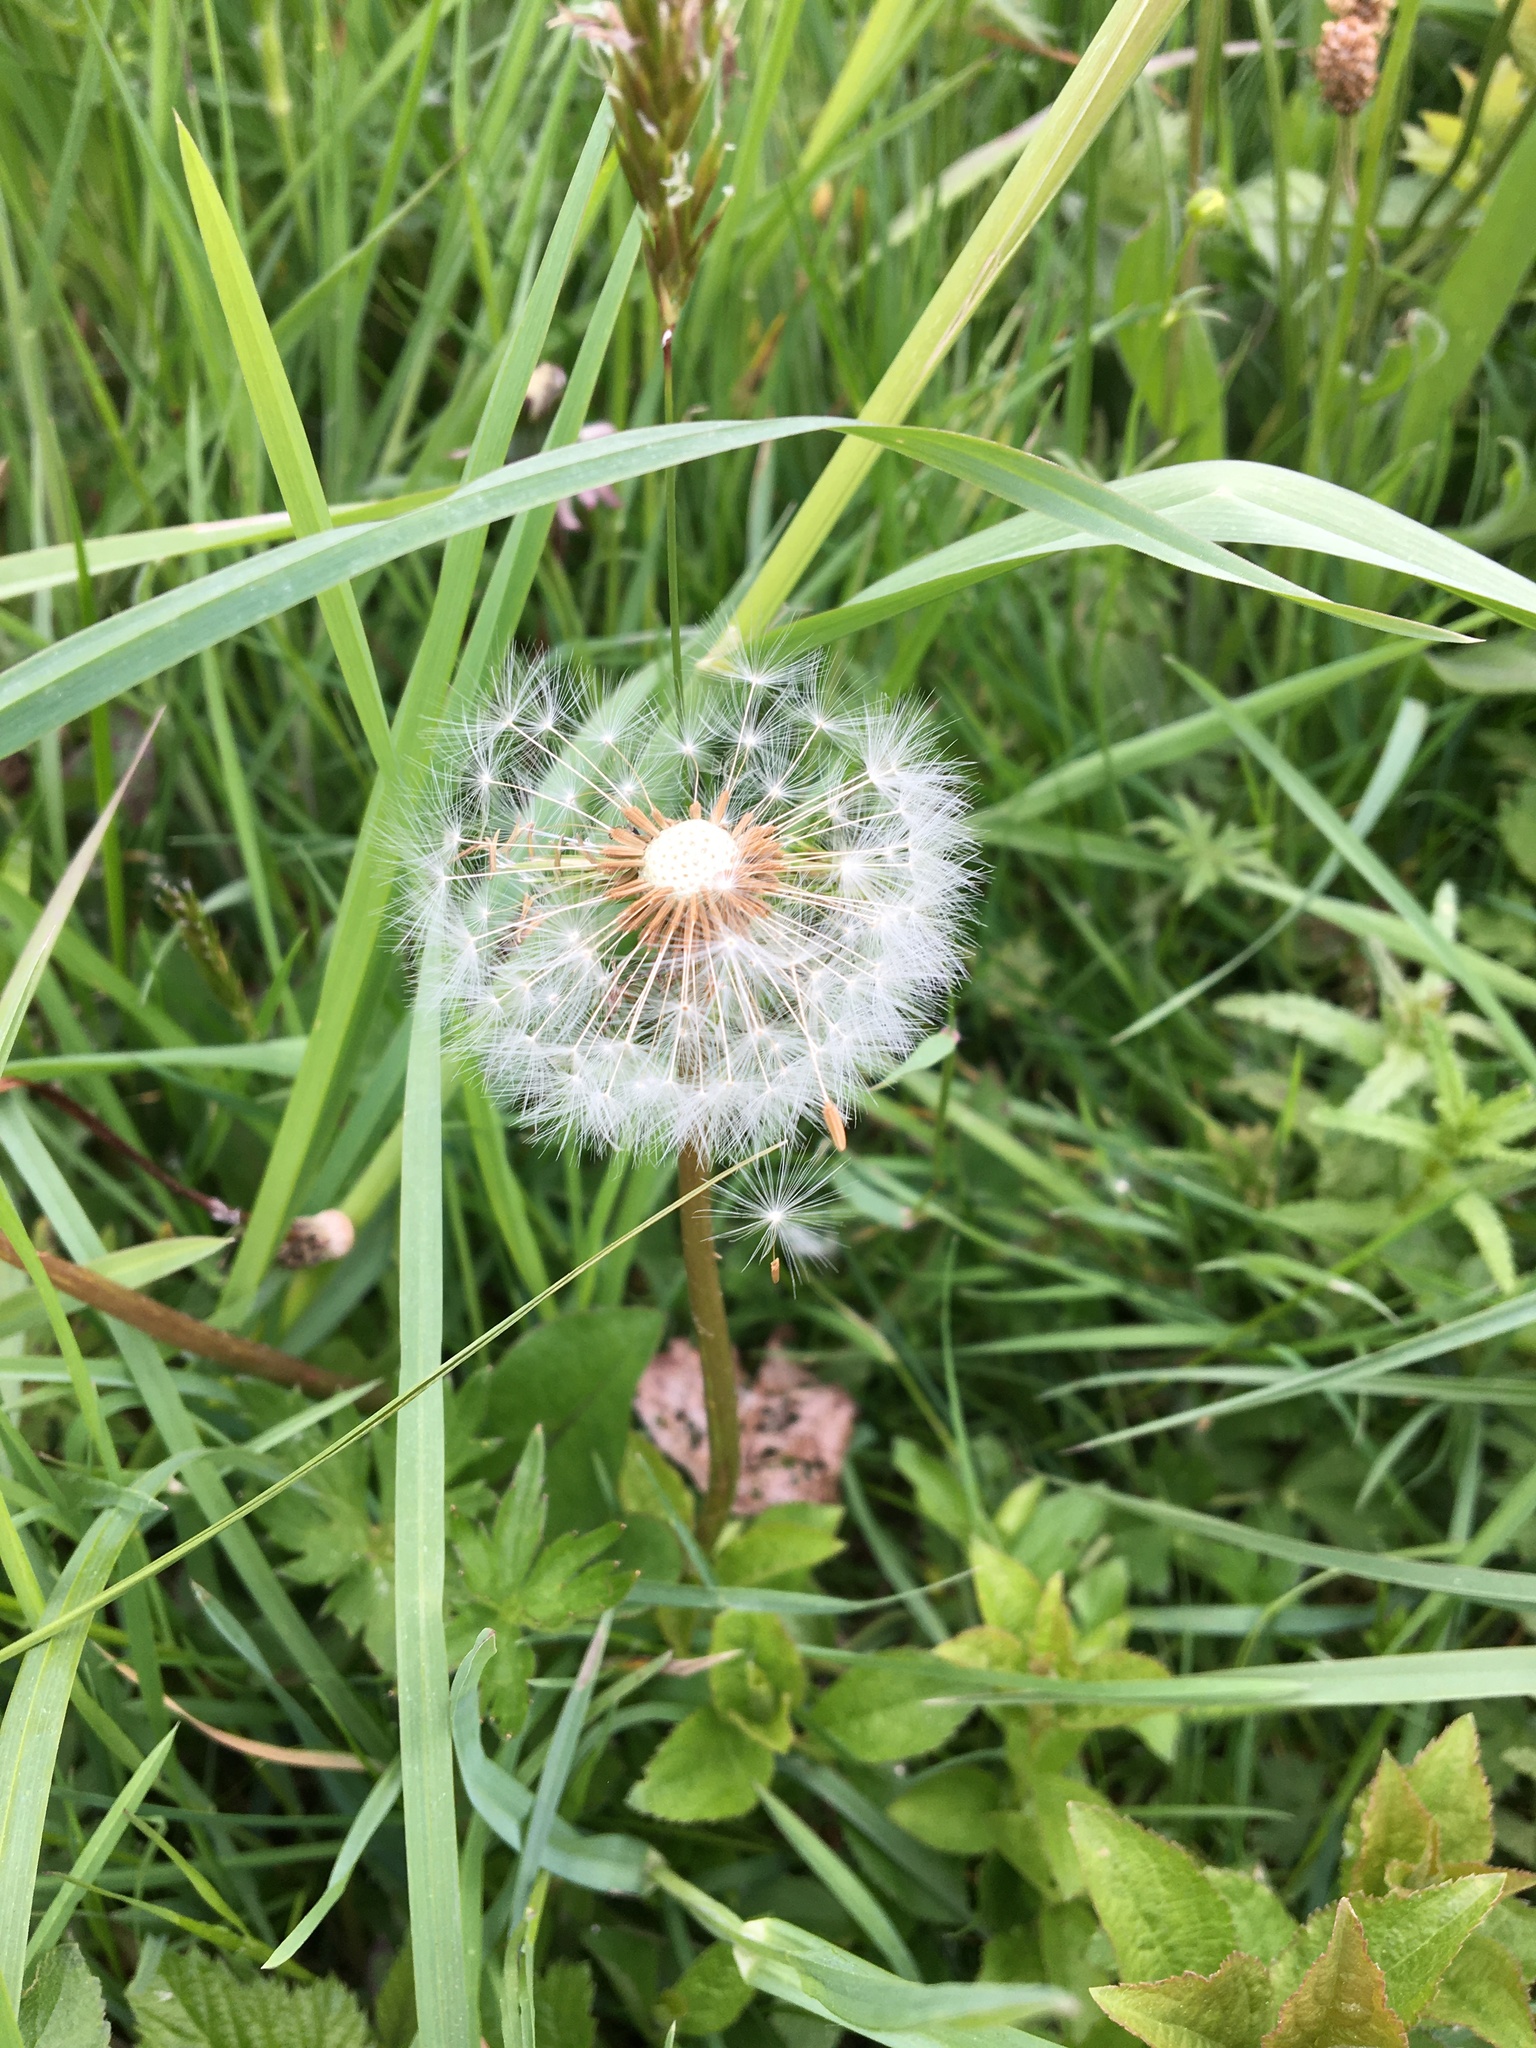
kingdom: Plantae
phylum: Tracheophyta
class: Magnoliopsida
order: Asterales
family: Asteraceae
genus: Taraxacum
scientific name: Taraxacum officinale
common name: Common dandelion
